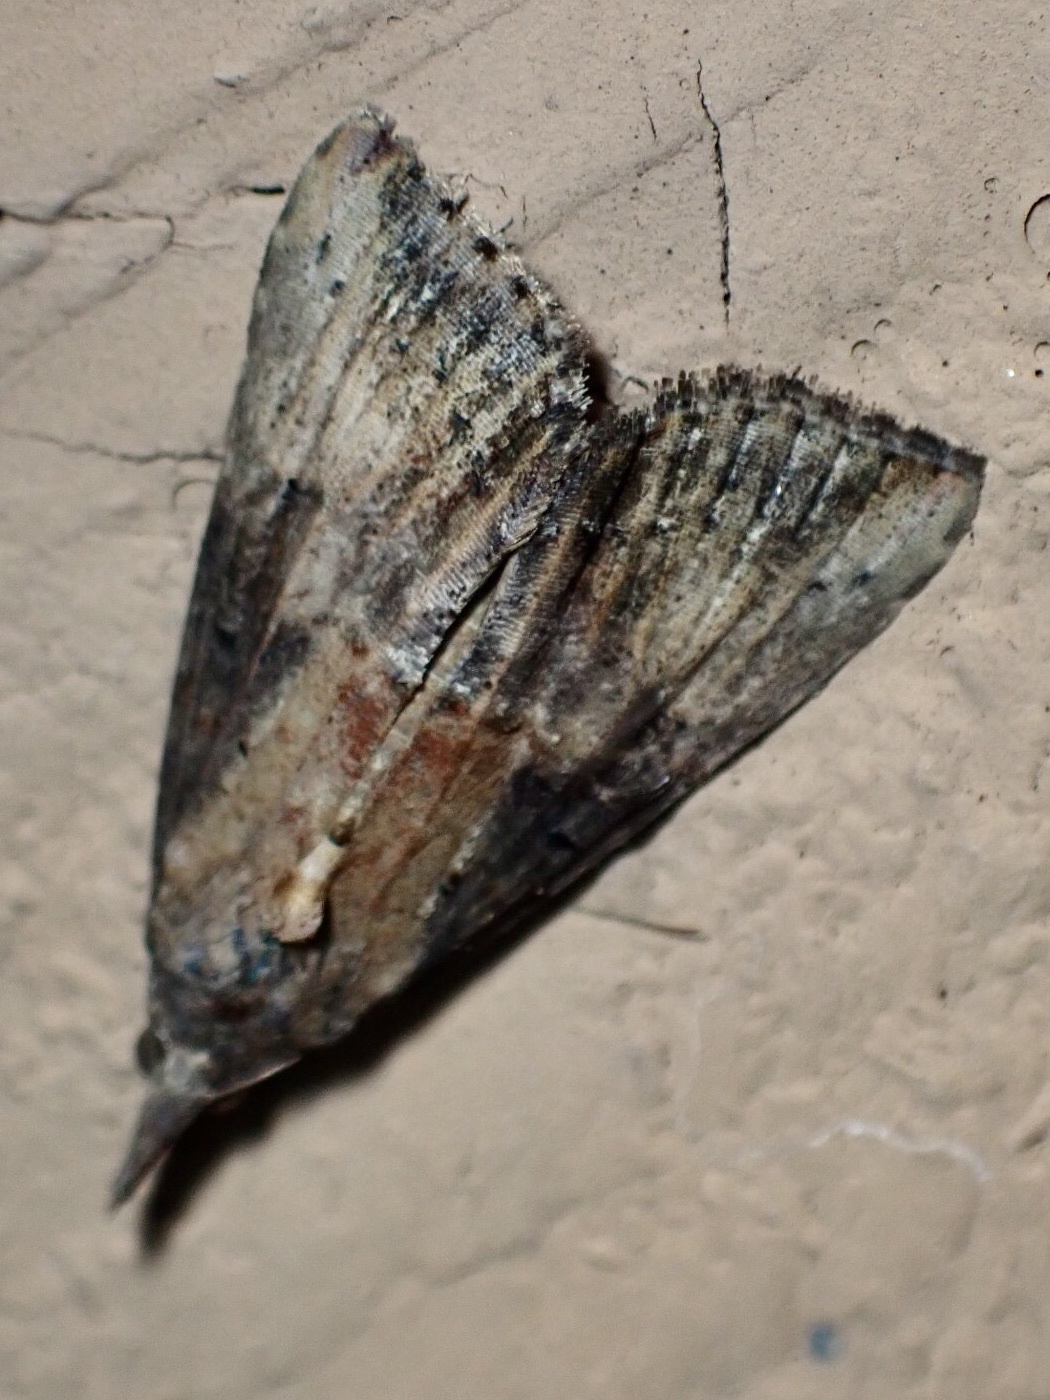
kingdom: Animalia
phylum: Arthropoda
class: Insecta
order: Lepidoptera
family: Erebidae
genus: Hypena
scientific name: Hypena scabra
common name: Green cloverworm
